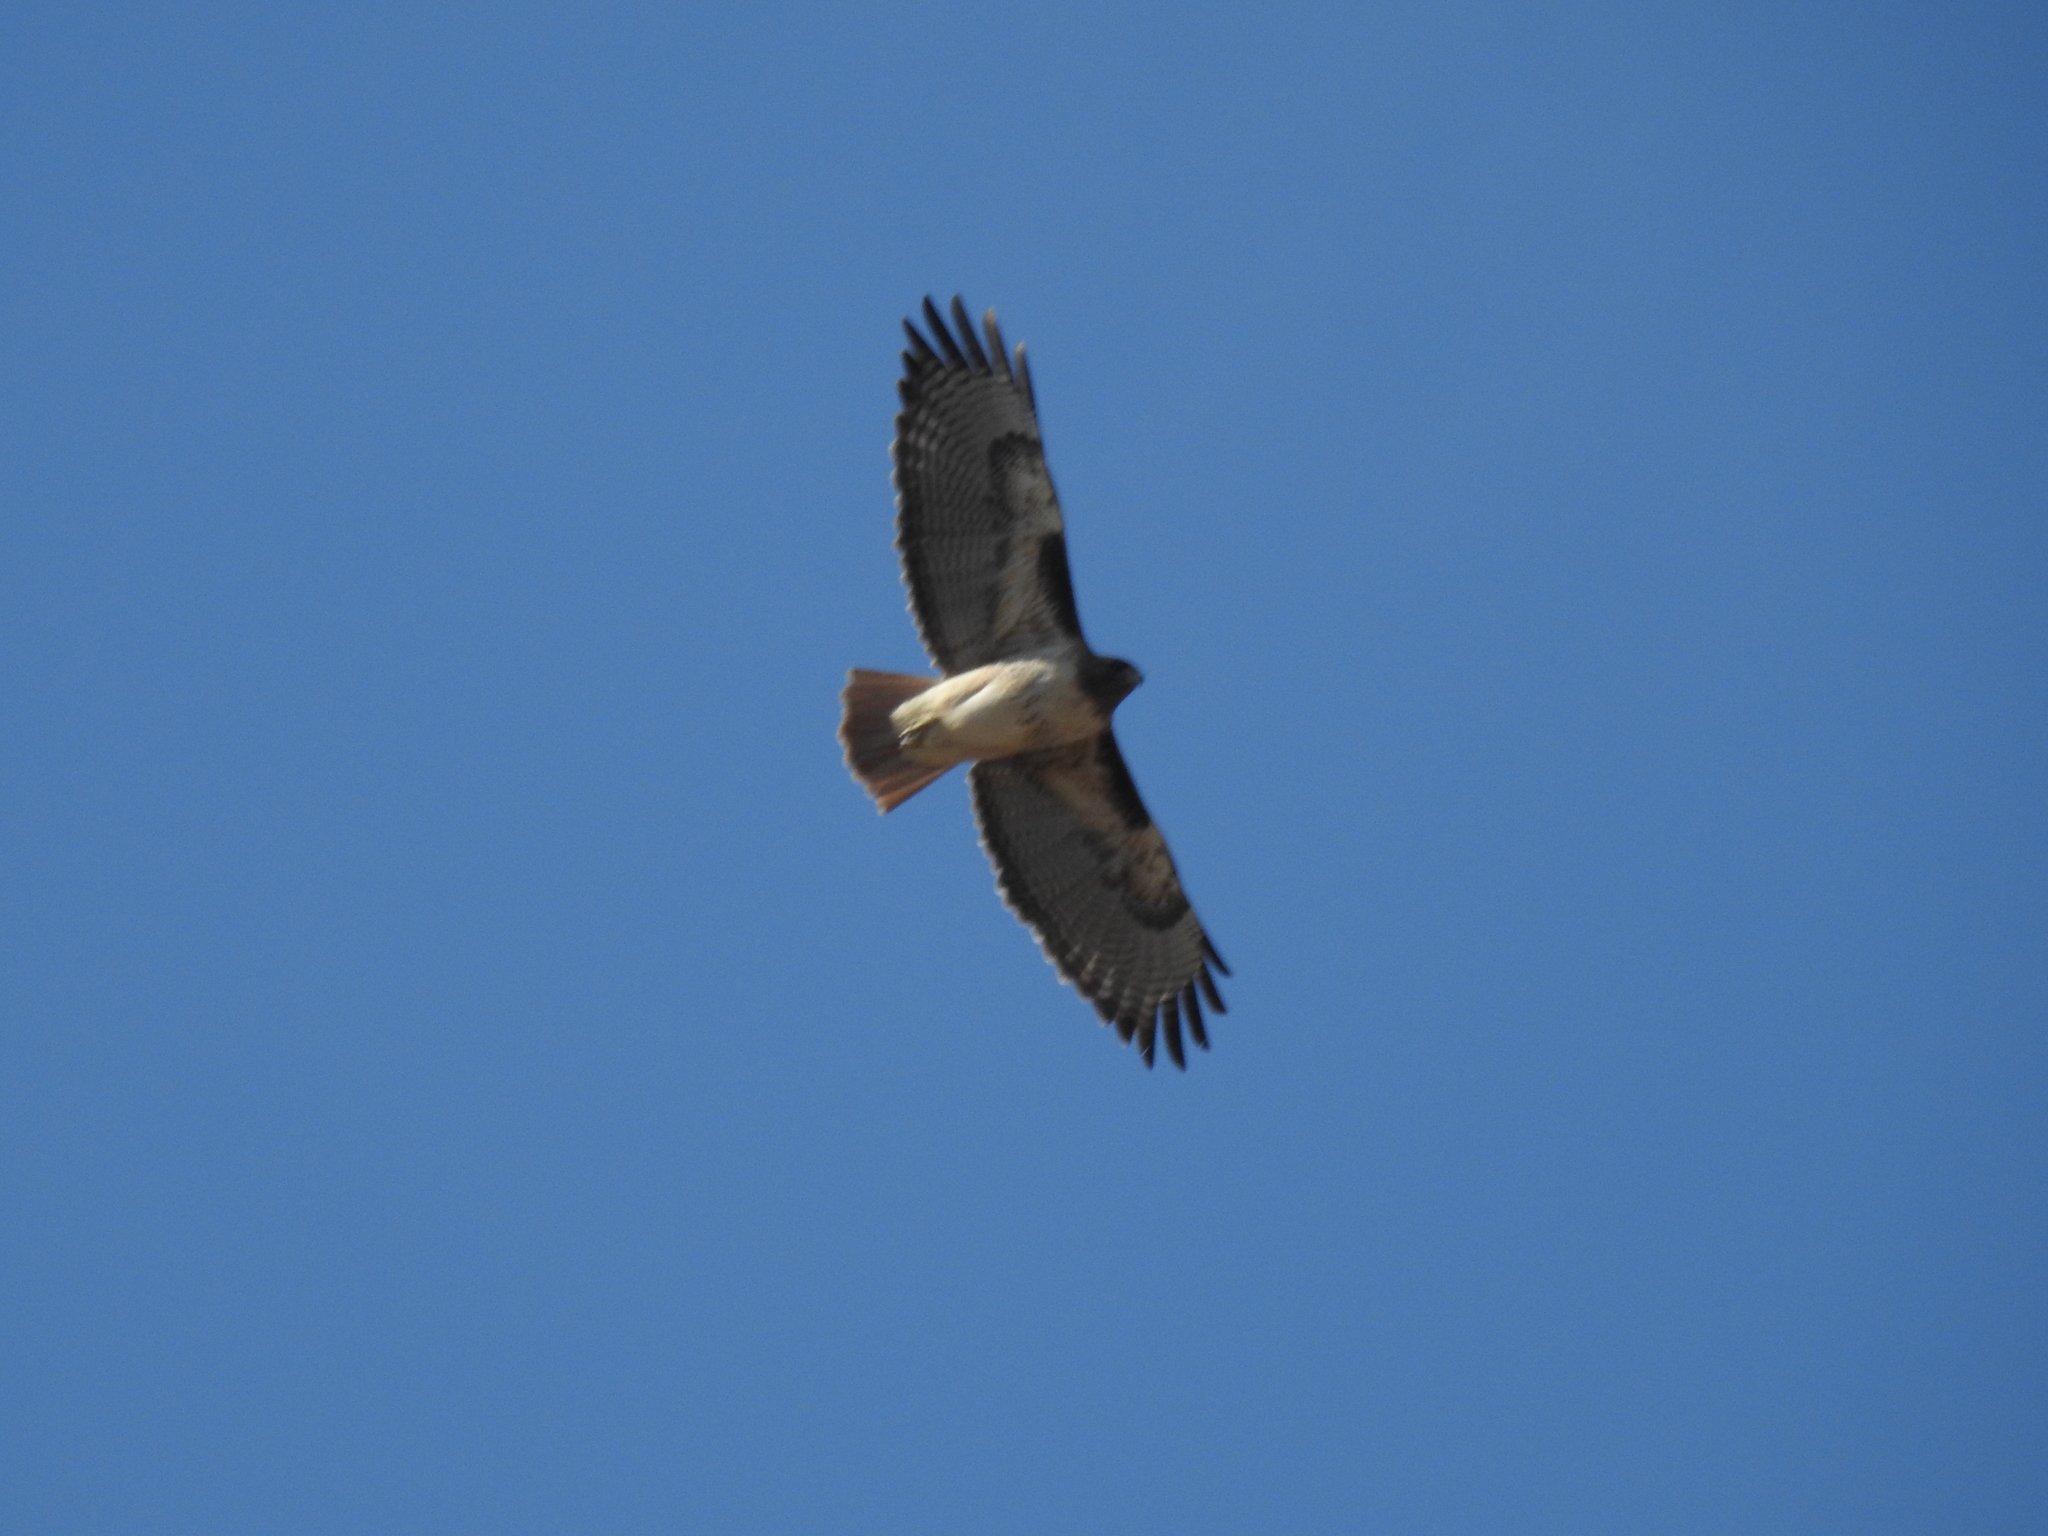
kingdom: Animalia
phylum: Chordata
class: Aves
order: Accipitriformes
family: Accipitridae
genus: Buteo
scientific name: Buteo jamaicensis
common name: Red-tailed hawk
